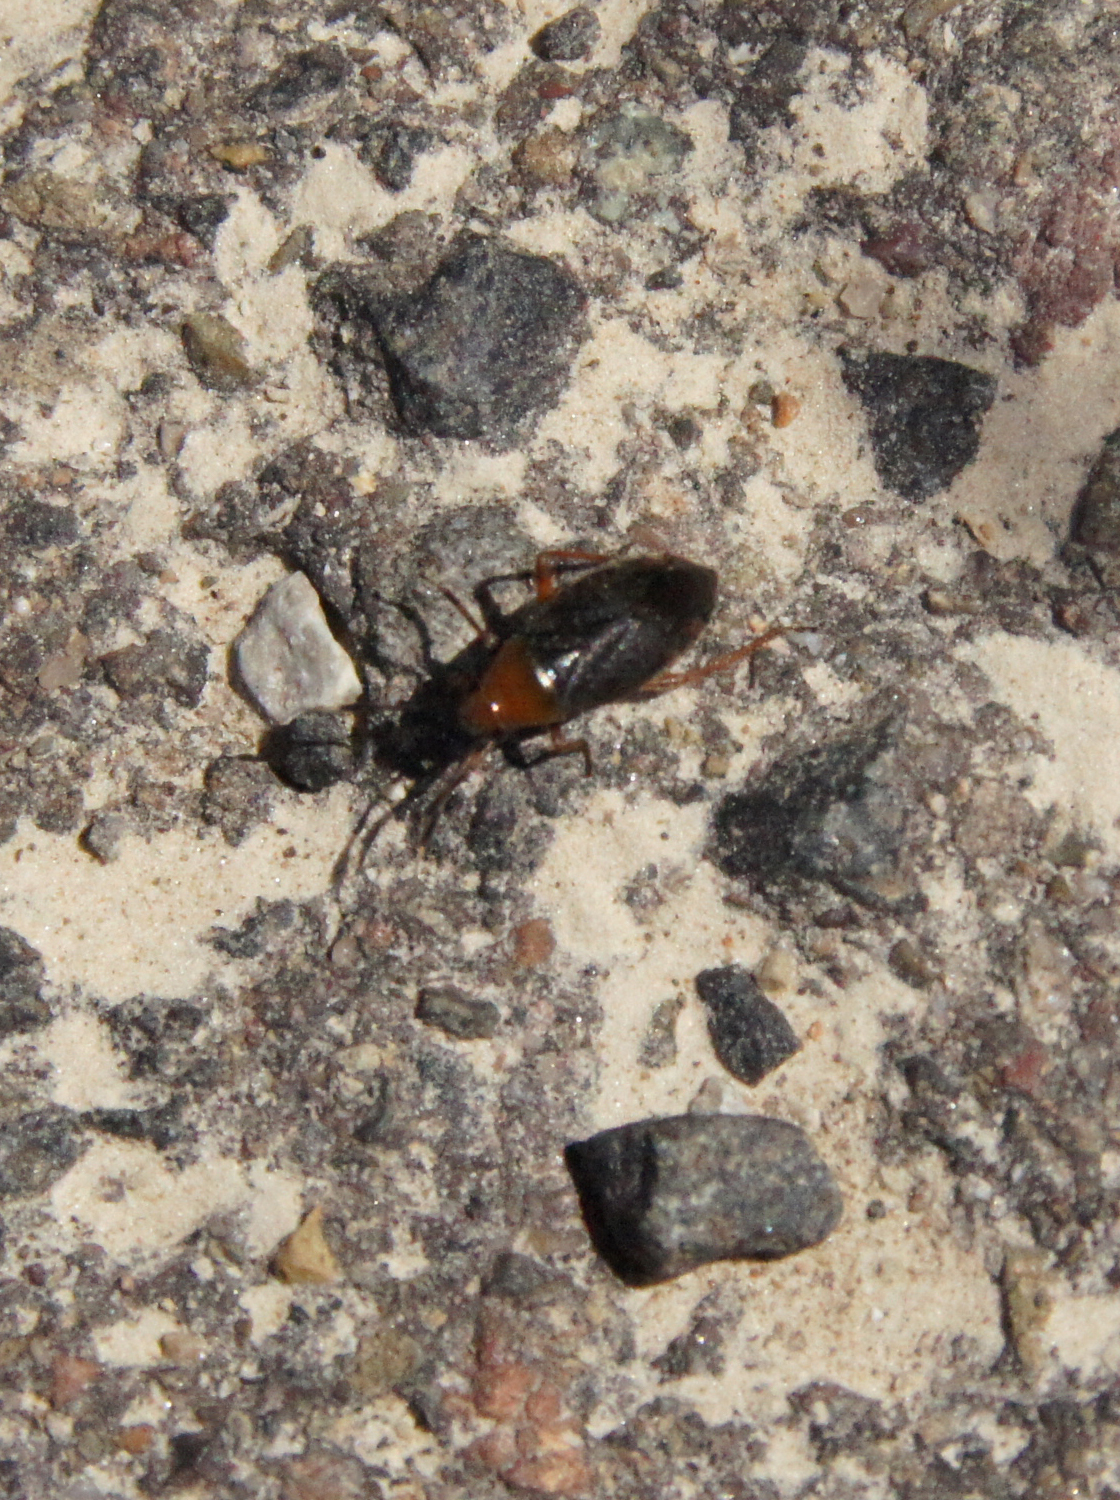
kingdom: Animalia
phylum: Arthropoda
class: Insecta
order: Hemiptera
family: Miridae
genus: Capsus
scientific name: Capsus ater
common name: Black plant bug
